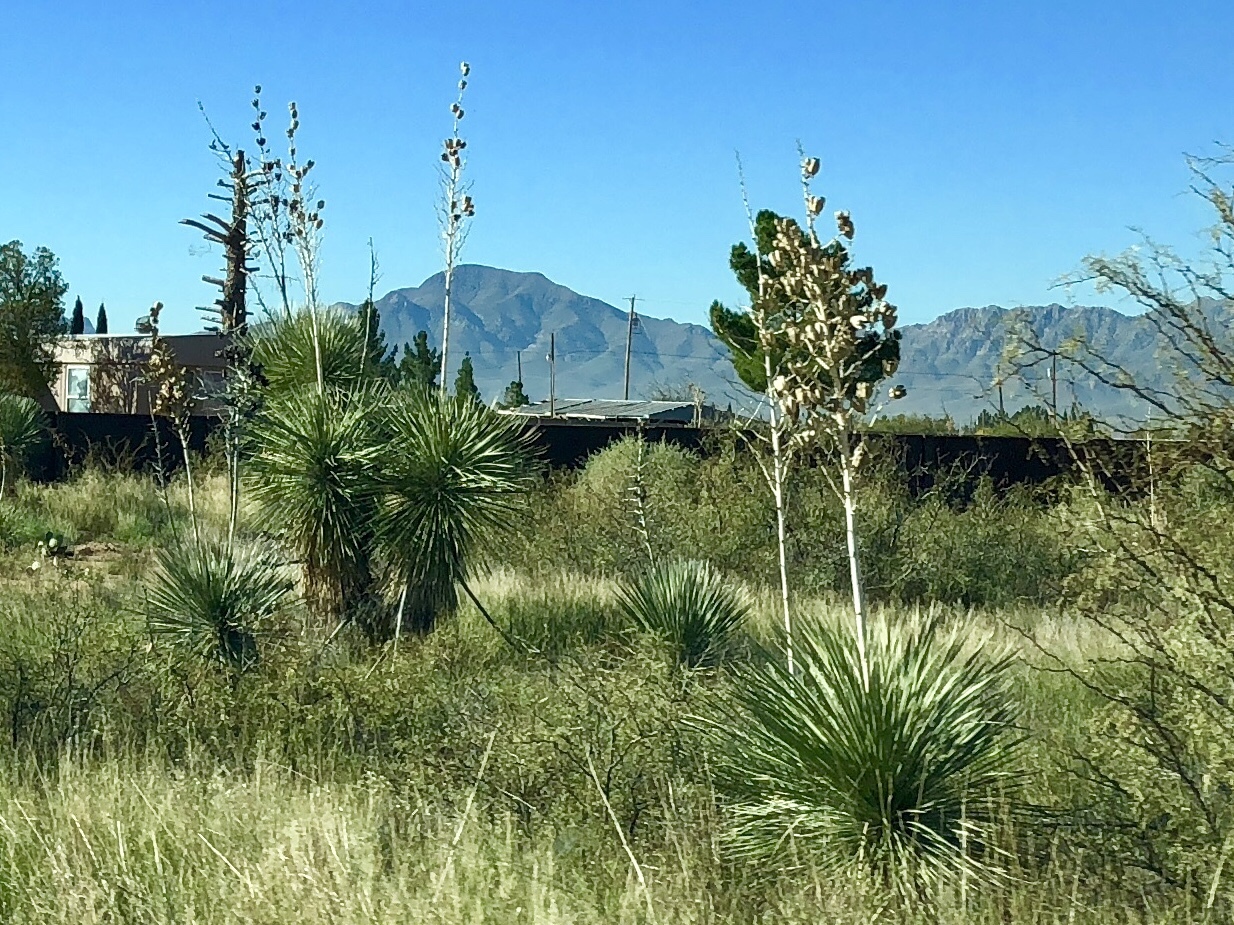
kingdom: Plantae
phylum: Tracheophyta
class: Liliopsida
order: Asparagales
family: Asparagaceae
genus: Yucca
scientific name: Yucca elata
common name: Palmella
